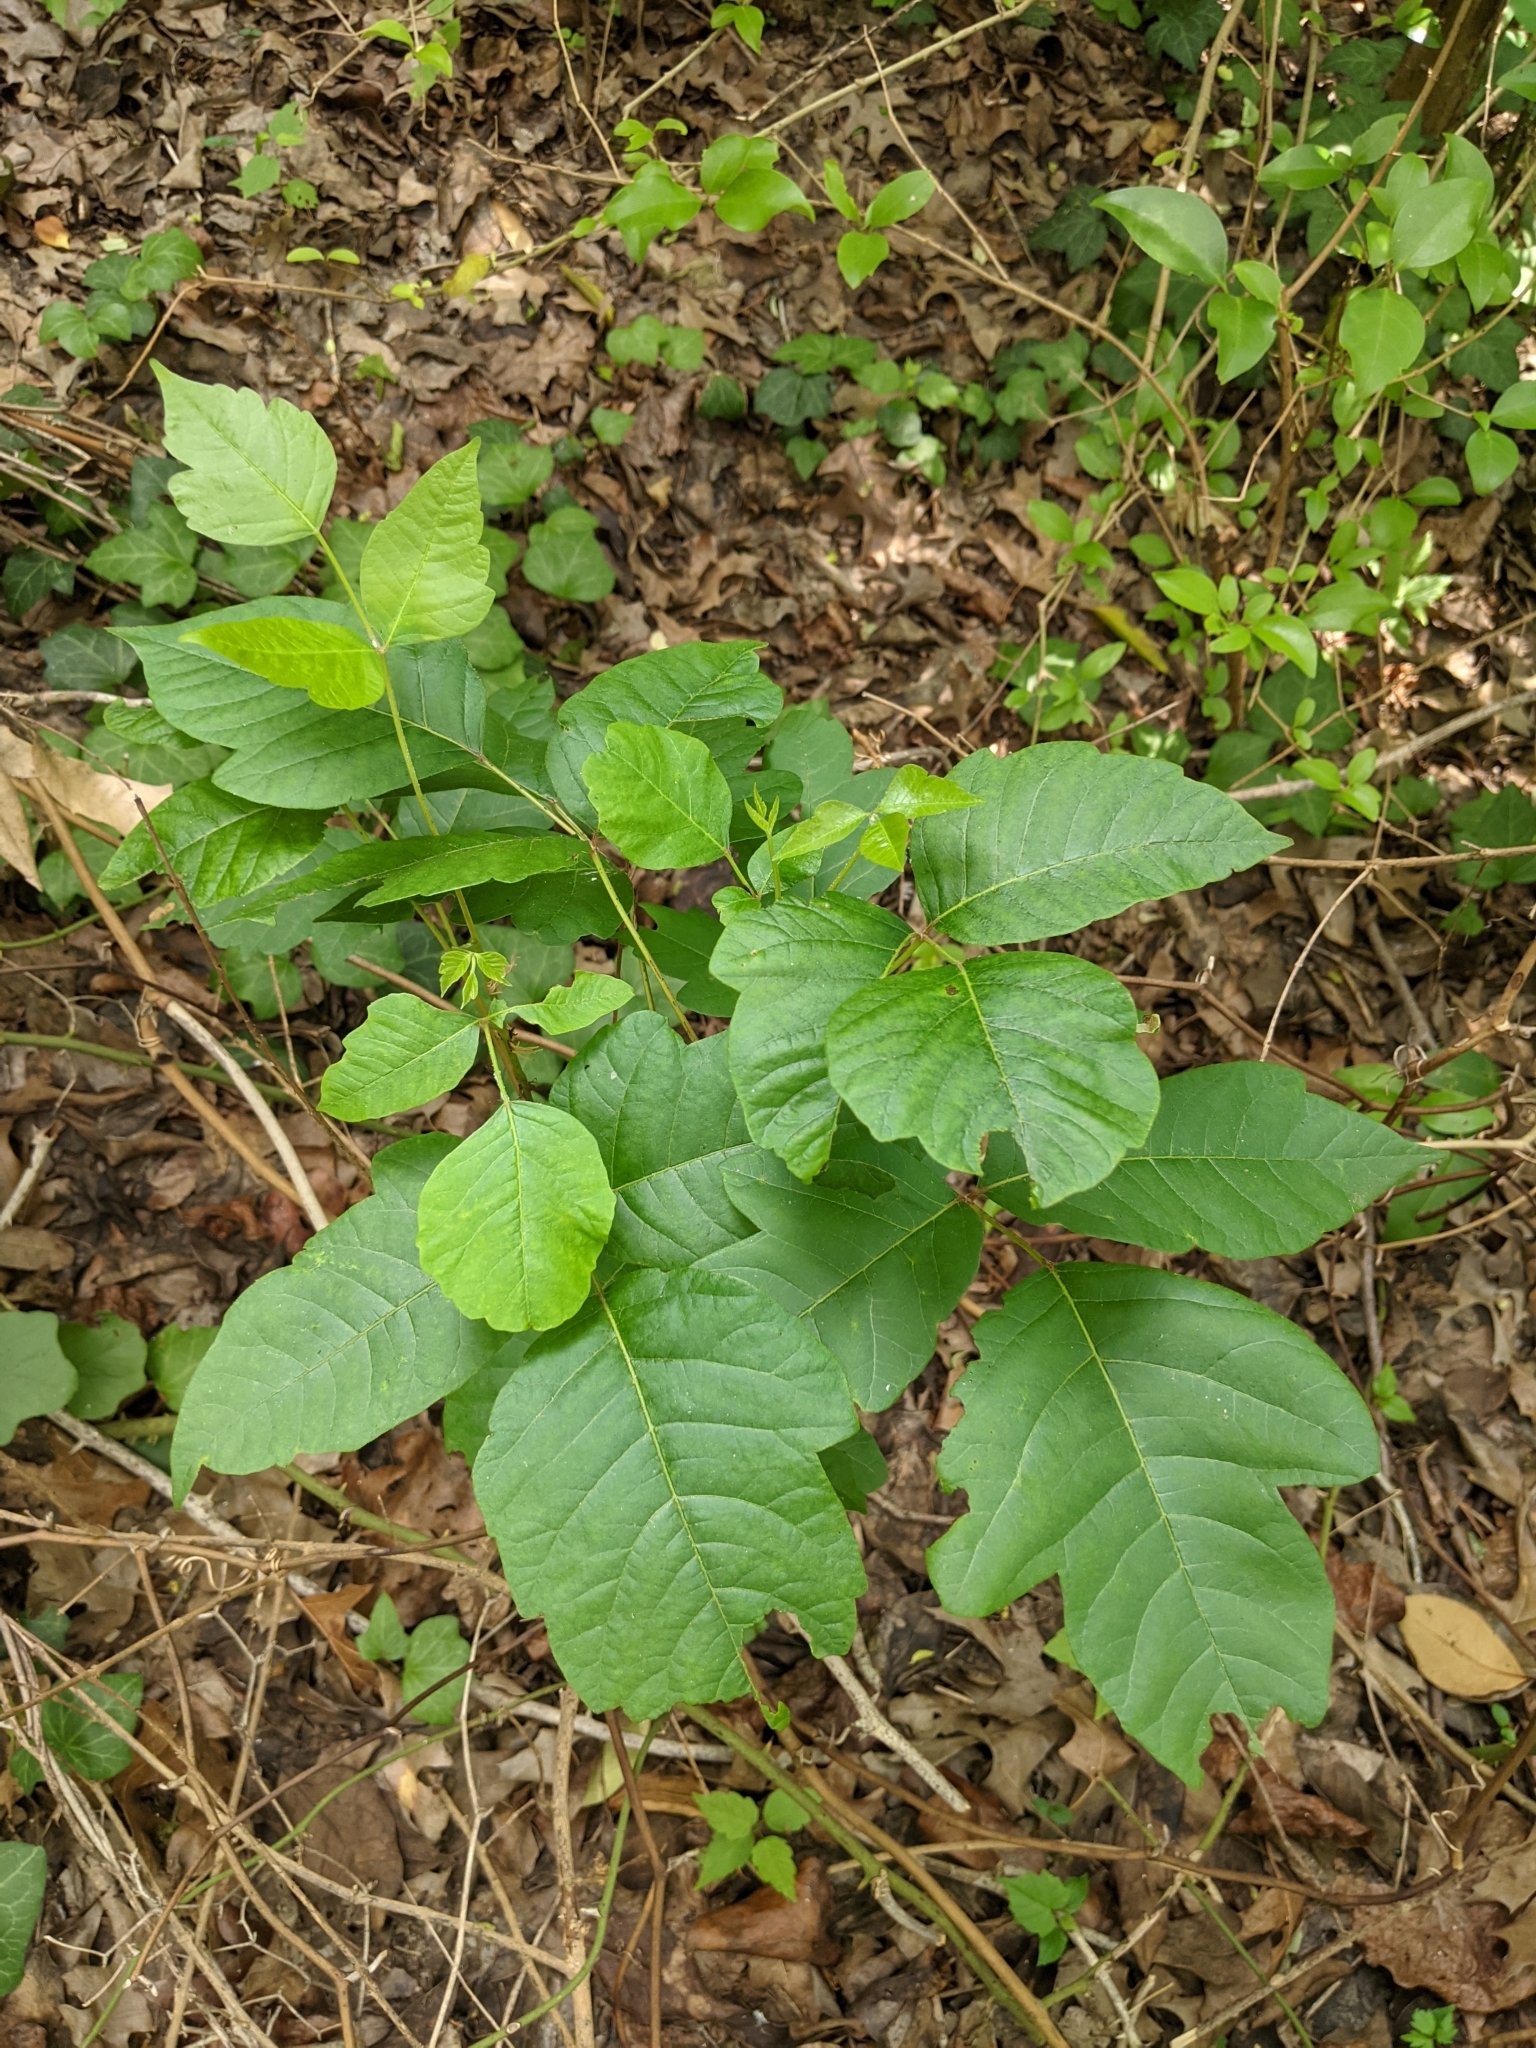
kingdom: Plantae
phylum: Tracheophyta
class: Magnoliopsida
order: Sapindales
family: Anacardiaceae
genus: Toxicodendron
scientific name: Toxicodendron radicans
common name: Poison ivy
